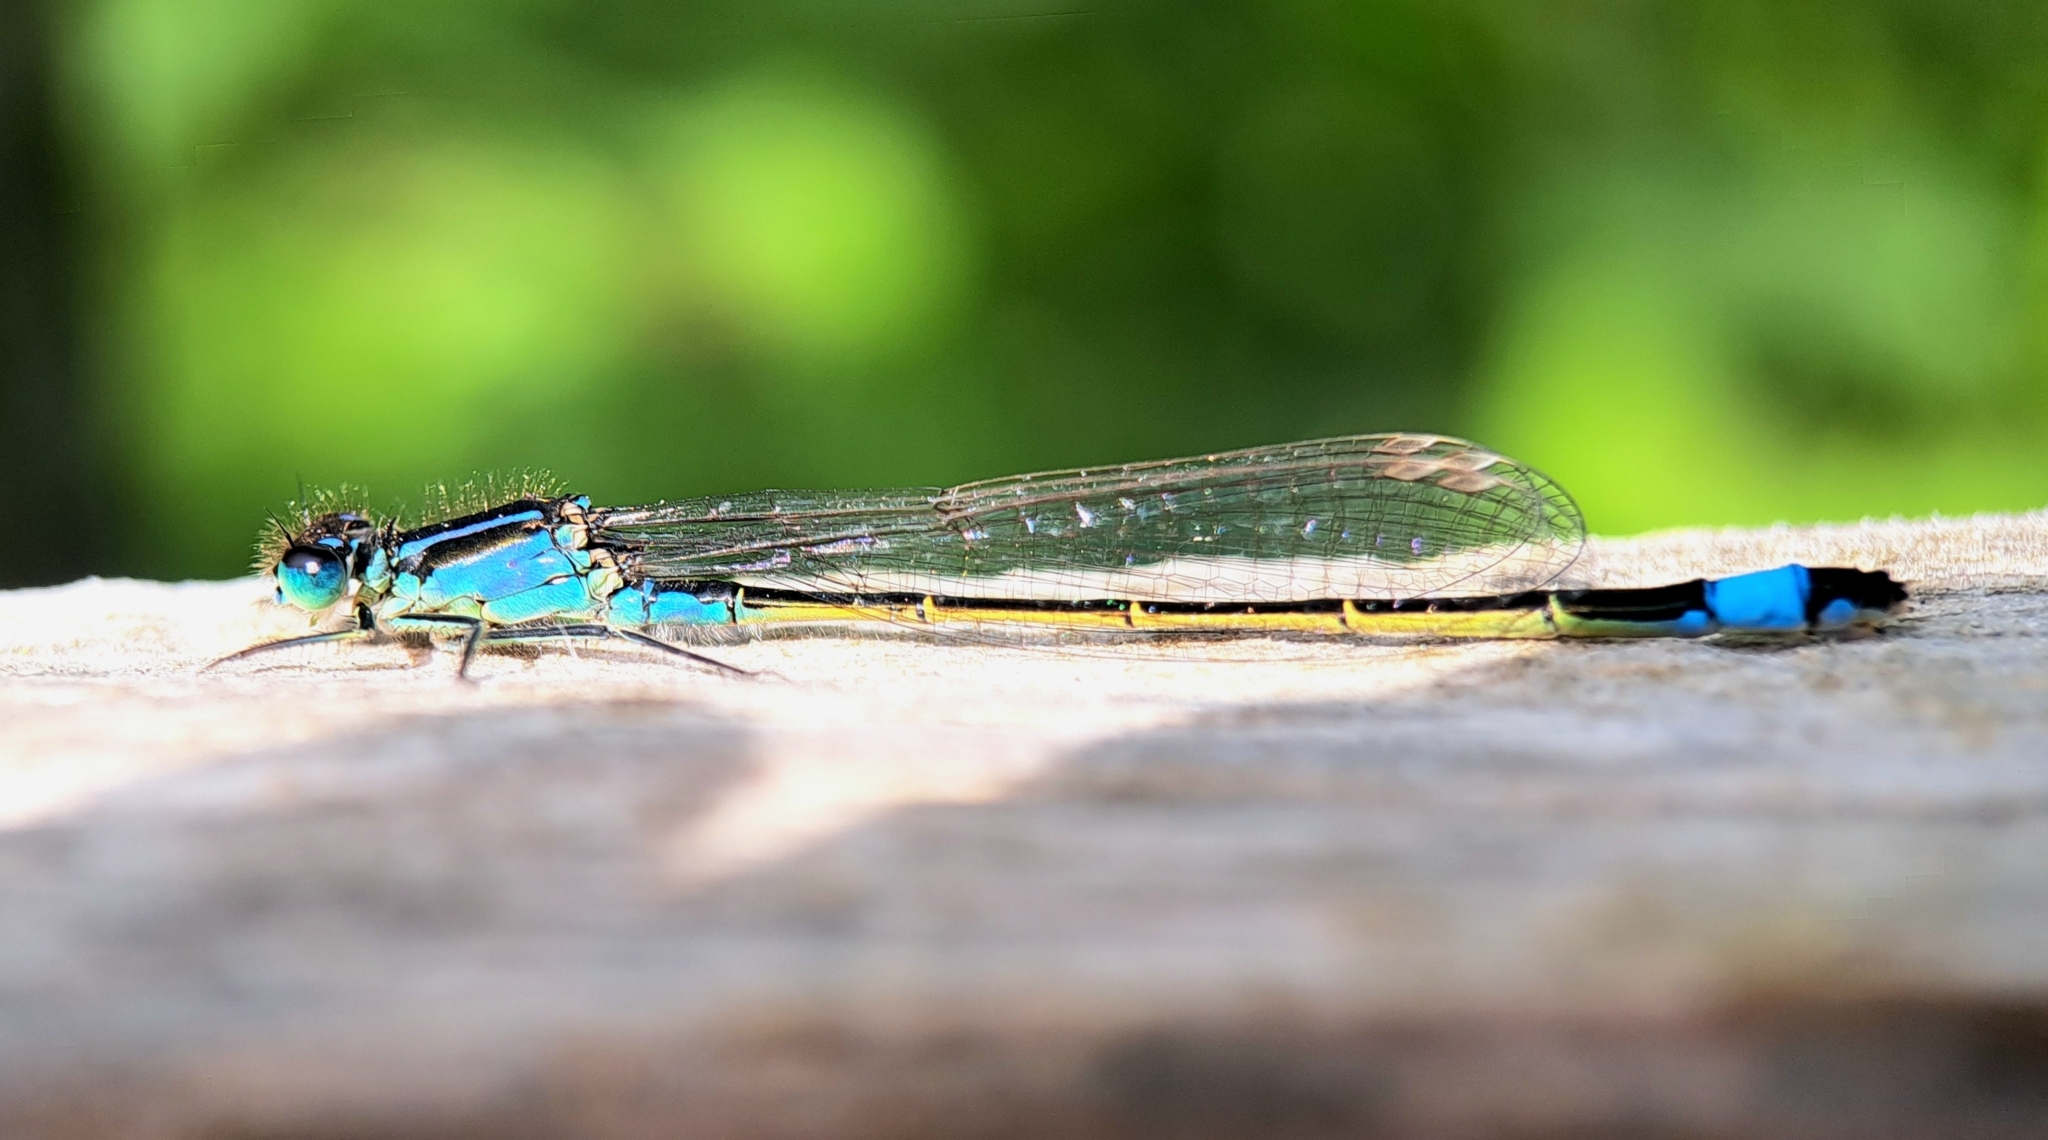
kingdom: Animalia
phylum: Arthropoda
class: Insecta
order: Odonata
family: Coenagrionidae
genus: Ischnura
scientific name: Ischnura elegans
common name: Blue-tailed damselfly
